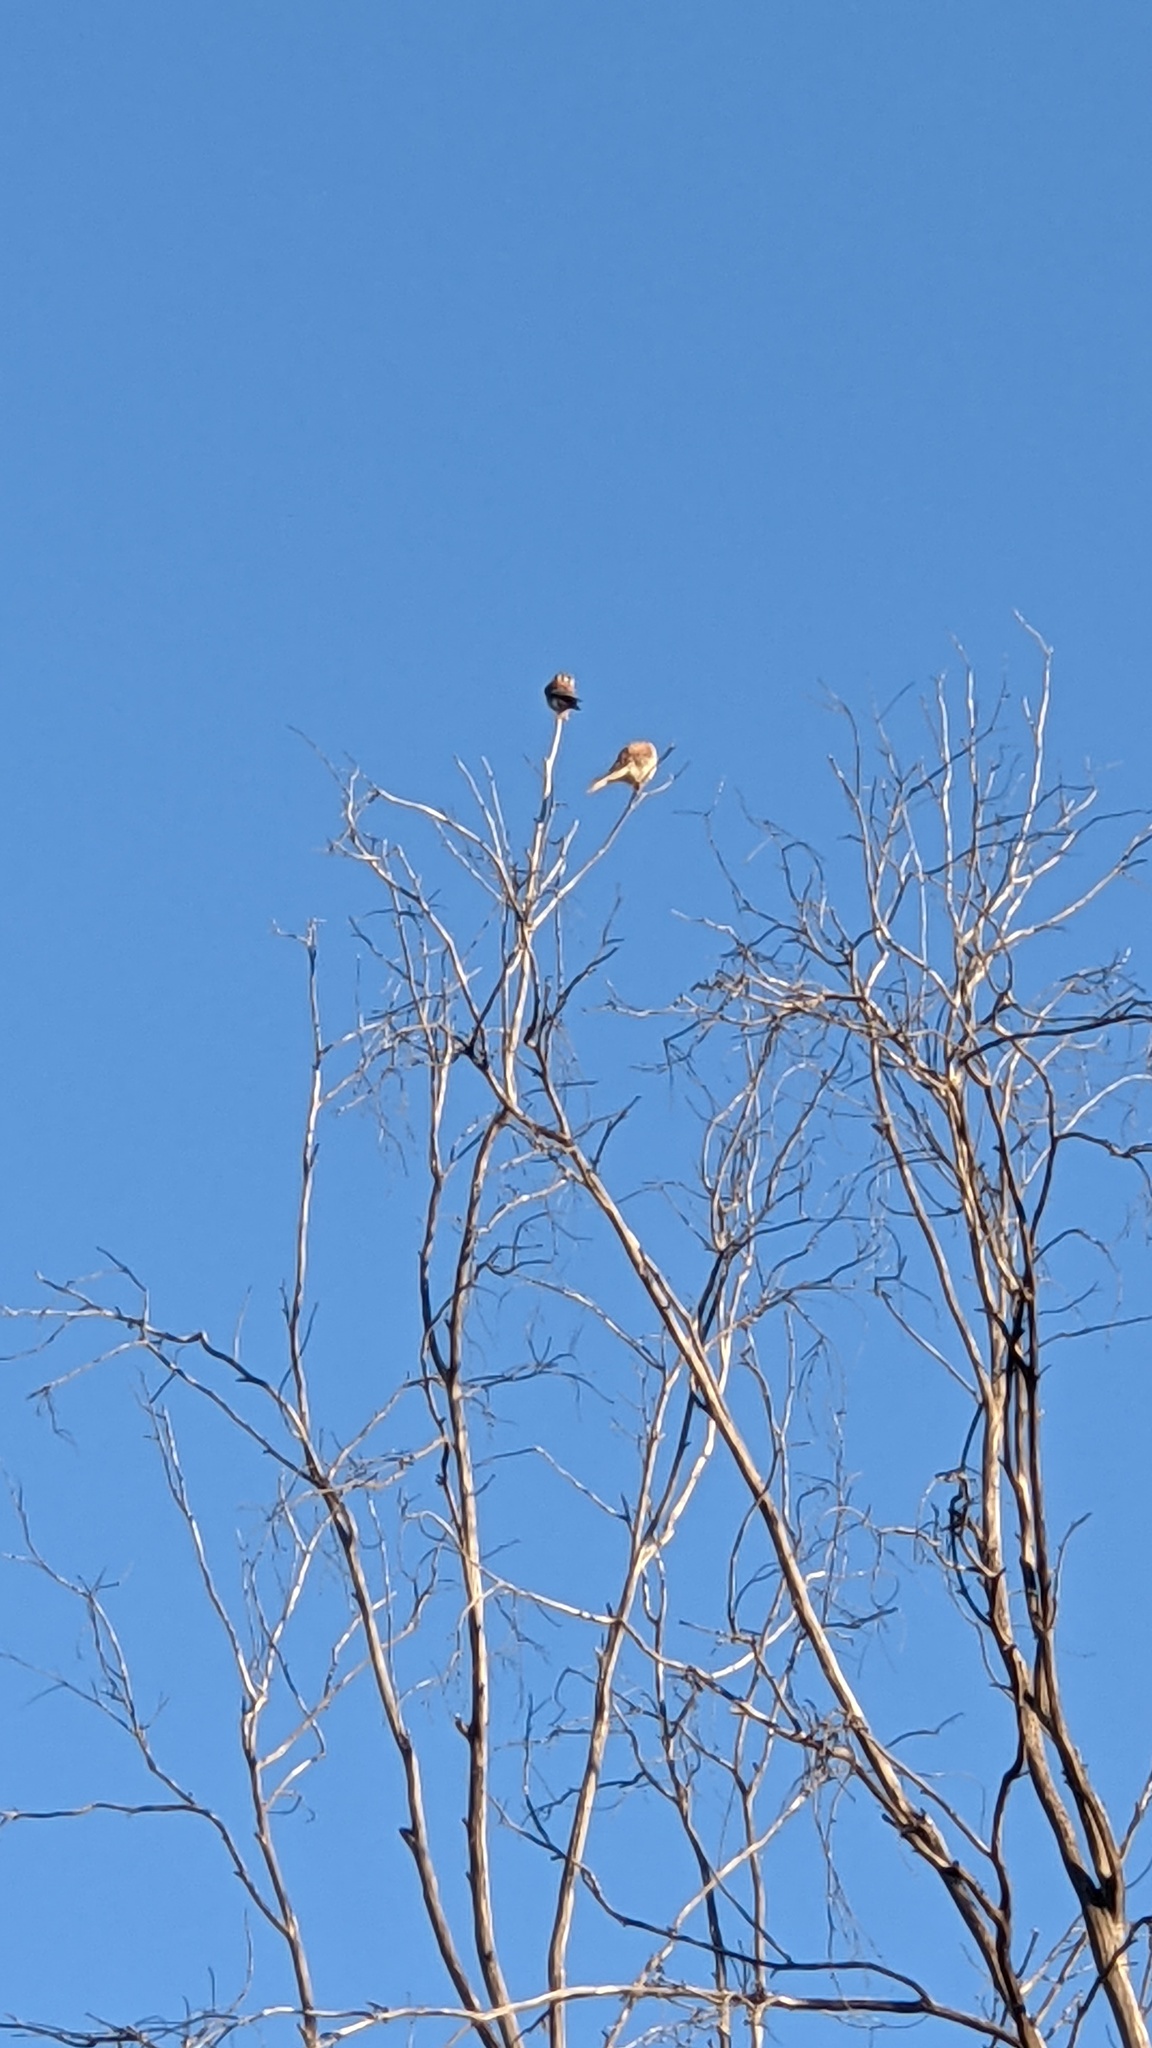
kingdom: Animalia
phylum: Chordata
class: Aves
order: Falconiformes
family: Falconidae
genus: Falco
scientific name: Falco sparverius
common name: American kestrel
